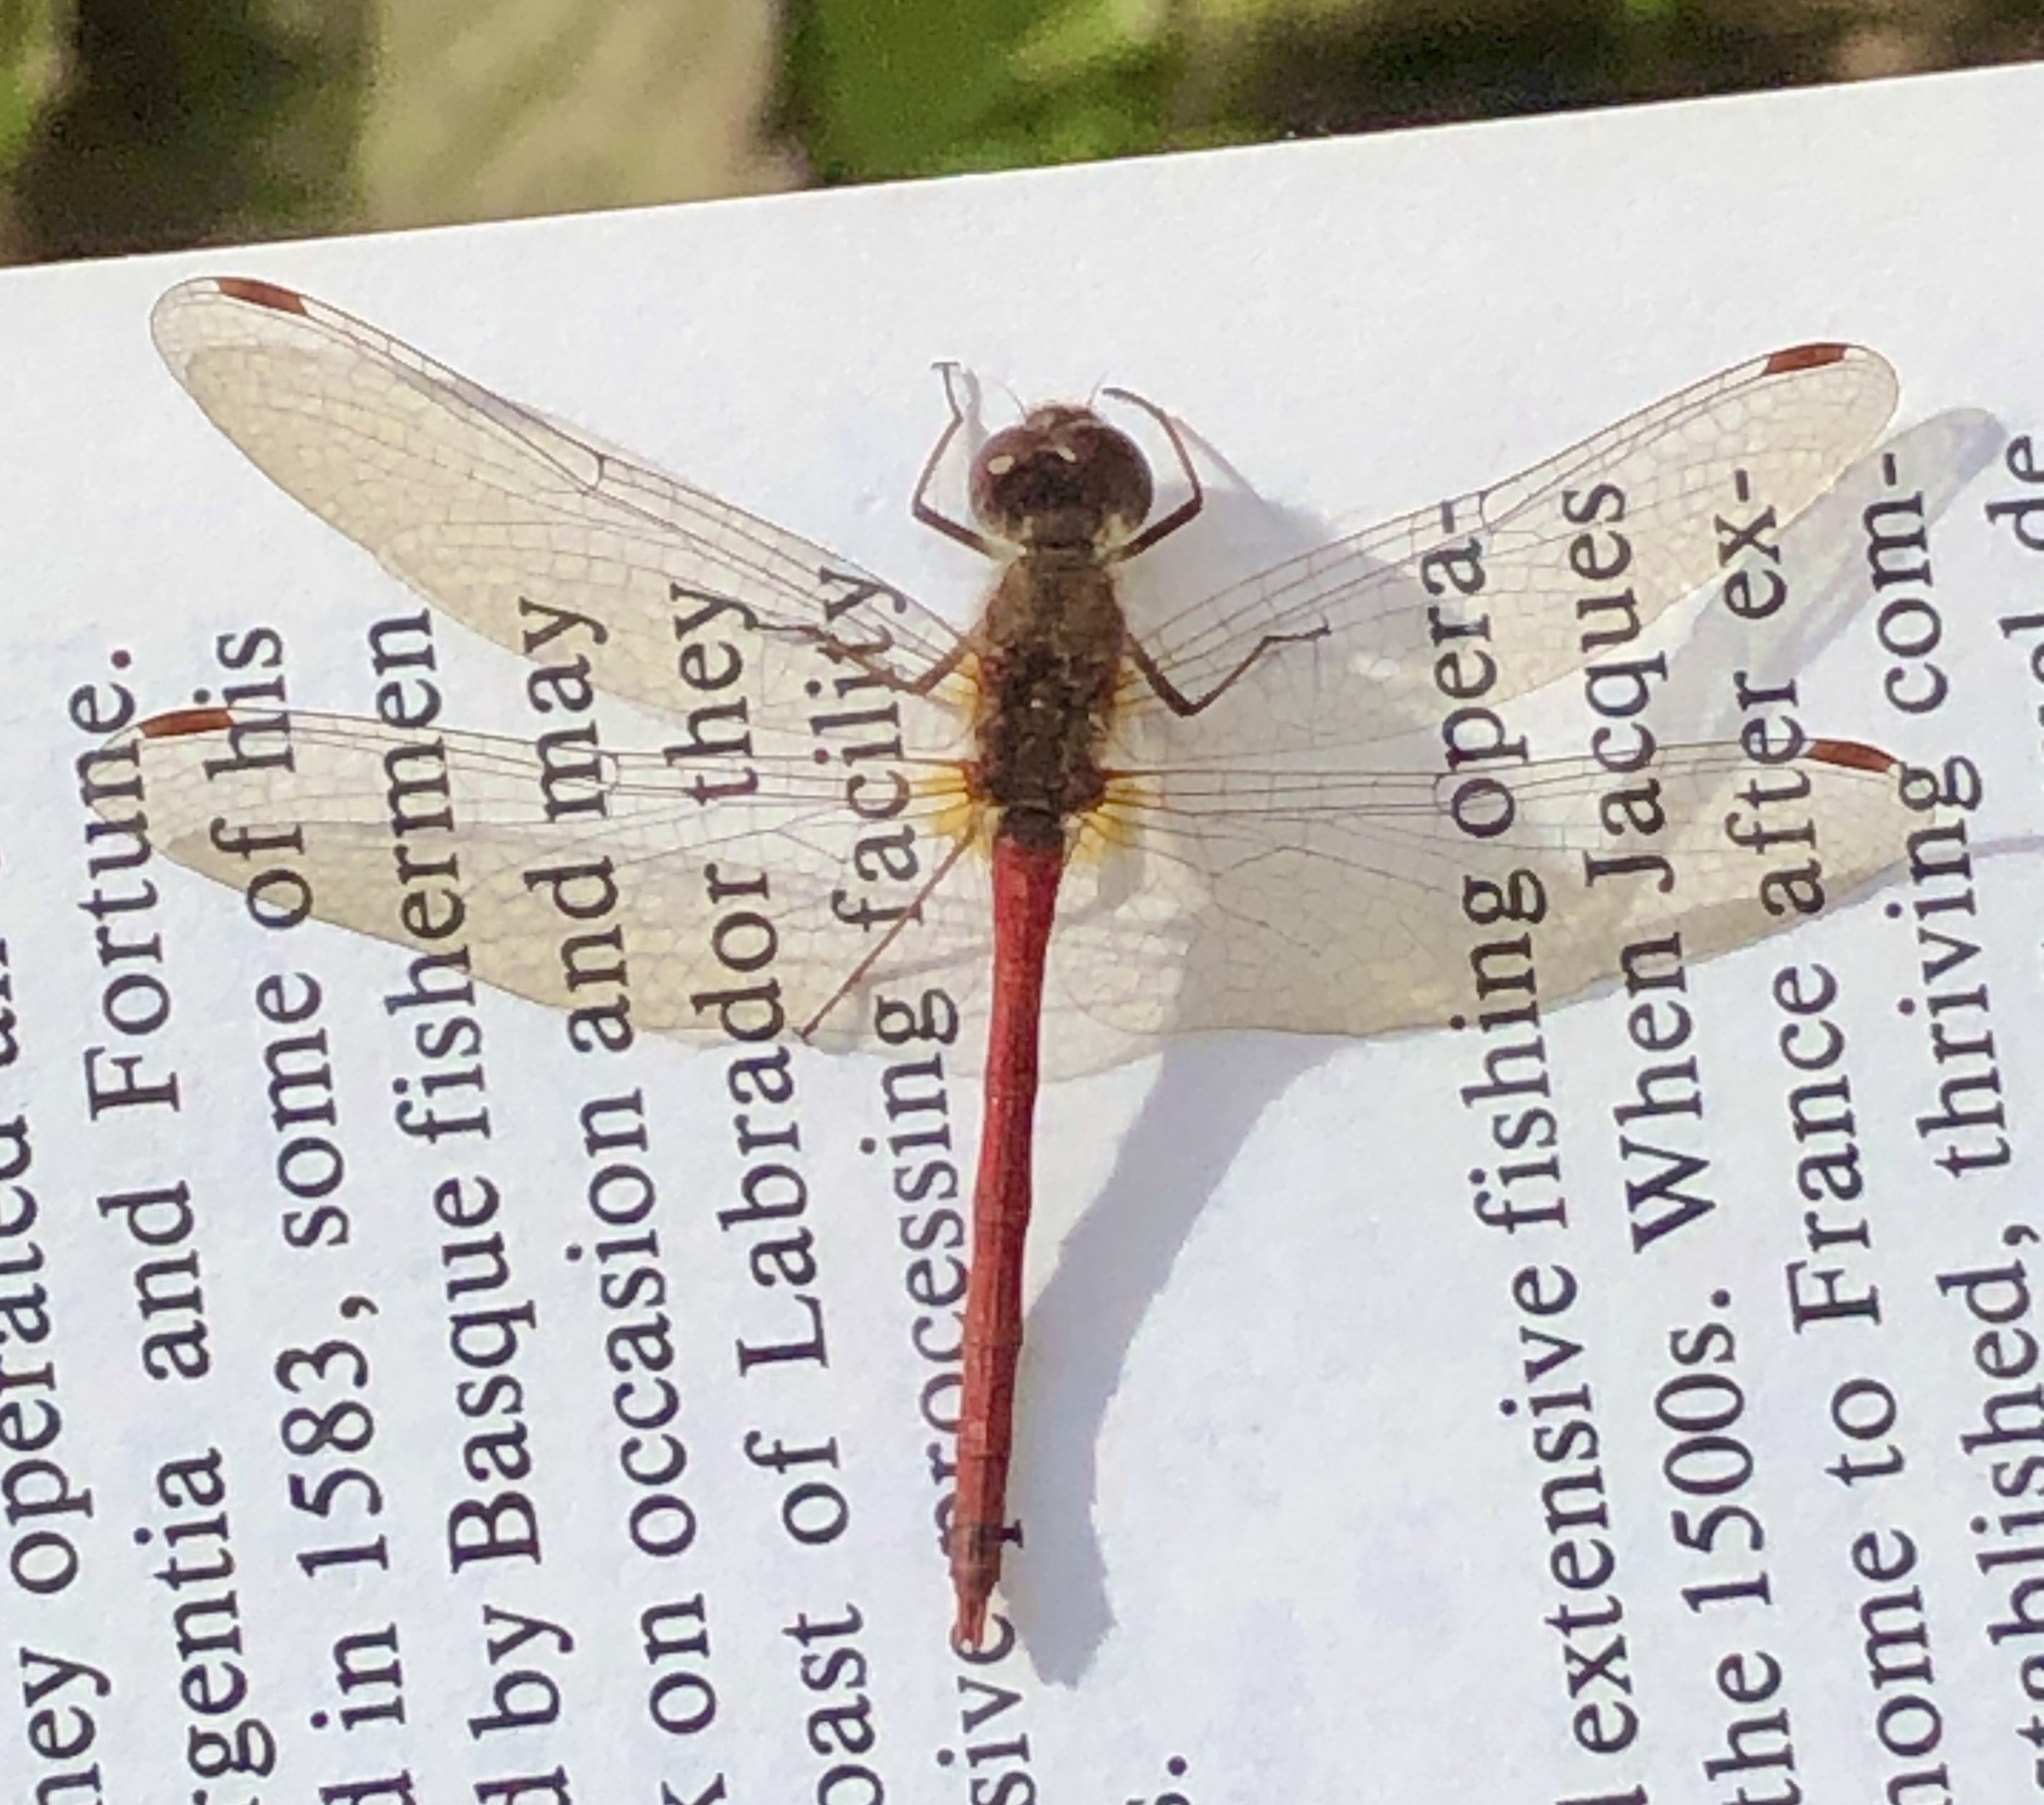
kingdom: Animalia
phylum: Arthropoda
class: Insecta
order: Odonata
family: Libellulidae
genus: Sympetrum
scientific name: Sympetrum vicinum
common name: Autumn meadowhawk
